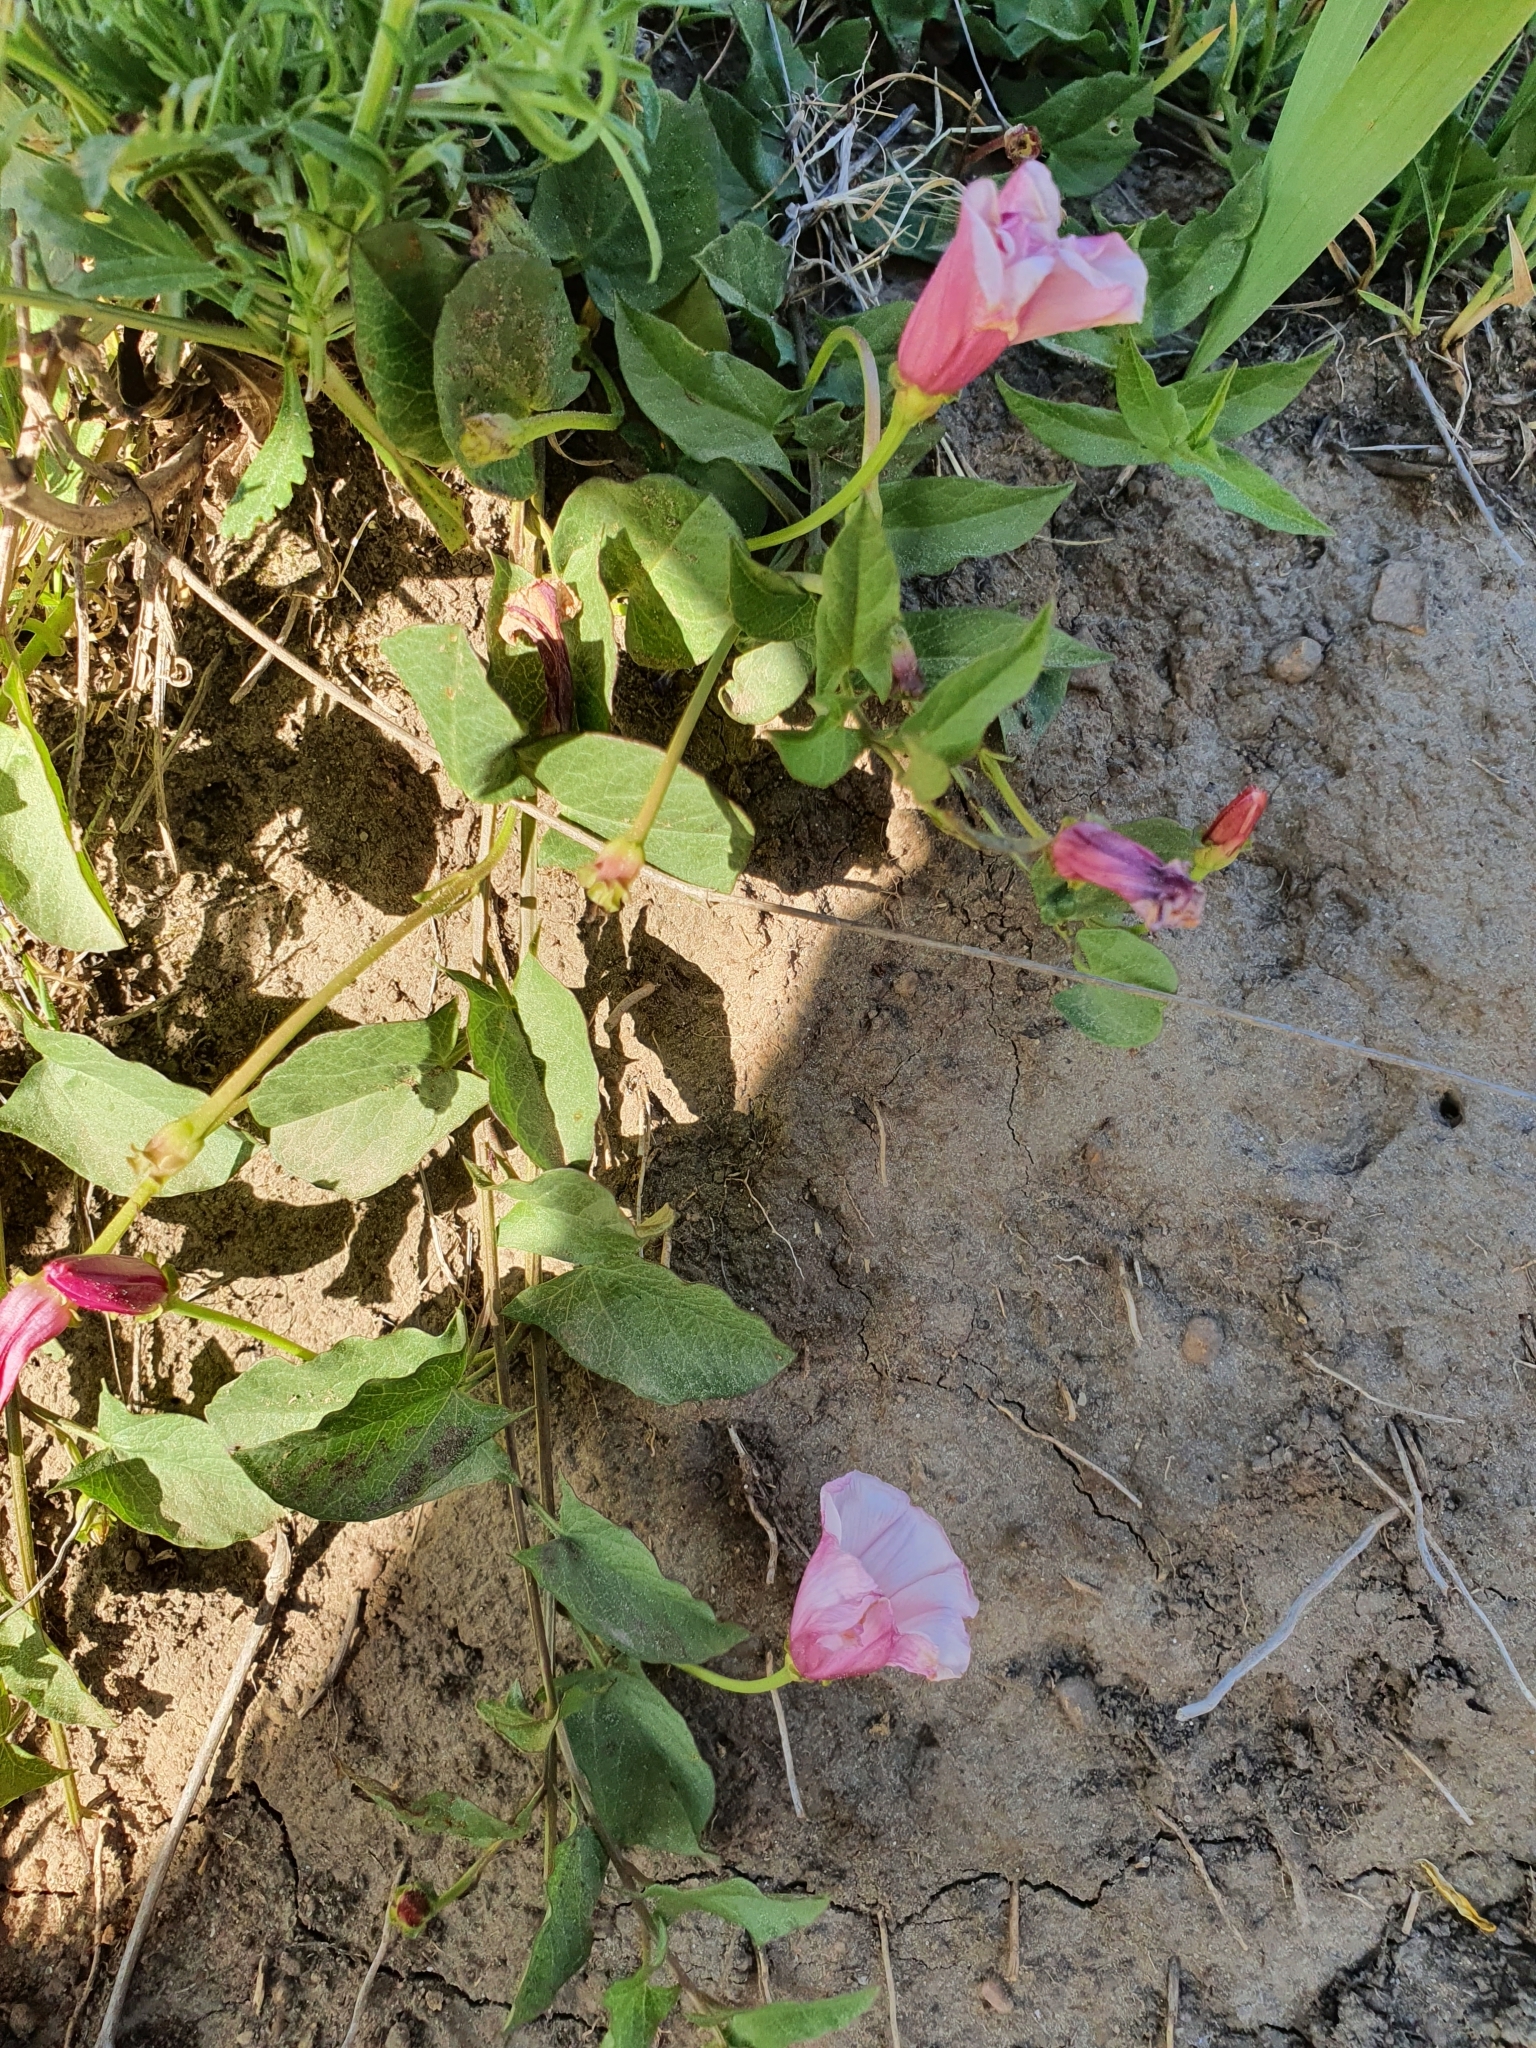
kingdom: Plantae
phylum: Tracheophyta
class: Magnoliopsida
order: Solanales
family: Convolvulaceae
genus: Convolvulus
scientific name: Convolvulus durandoi
